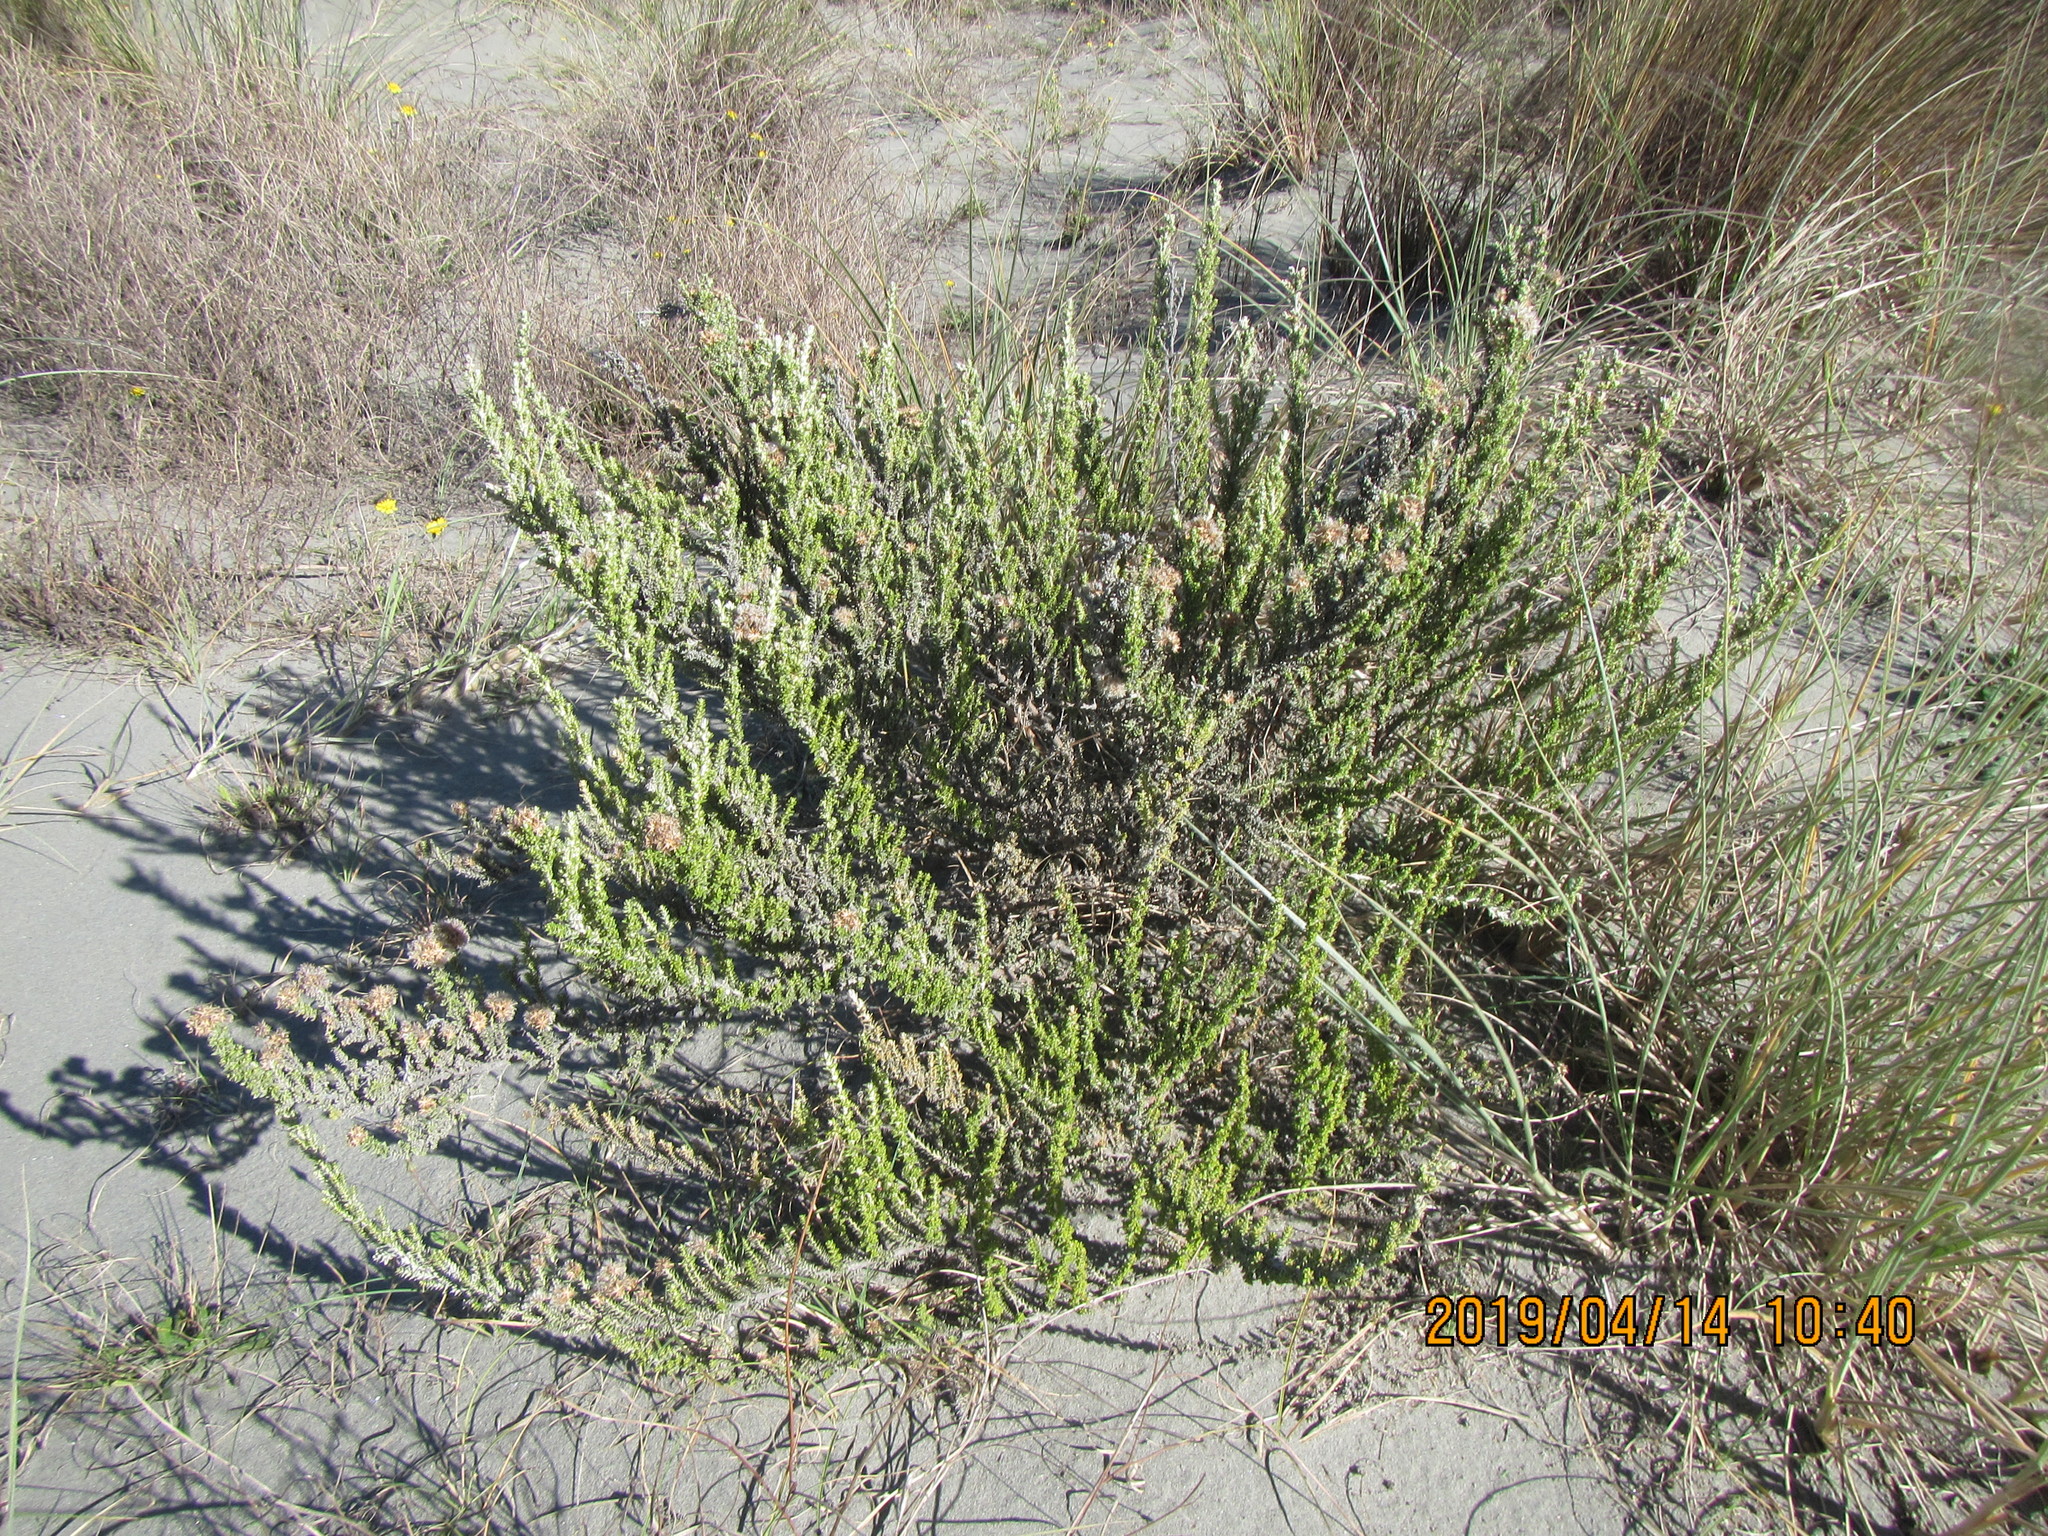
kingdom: Plantae
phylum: Tracheophyta
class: Magnoliopsida
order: Asterales
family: Asteraceae
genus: Ozothamnus
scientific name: Ozothamnus leptophyllus
